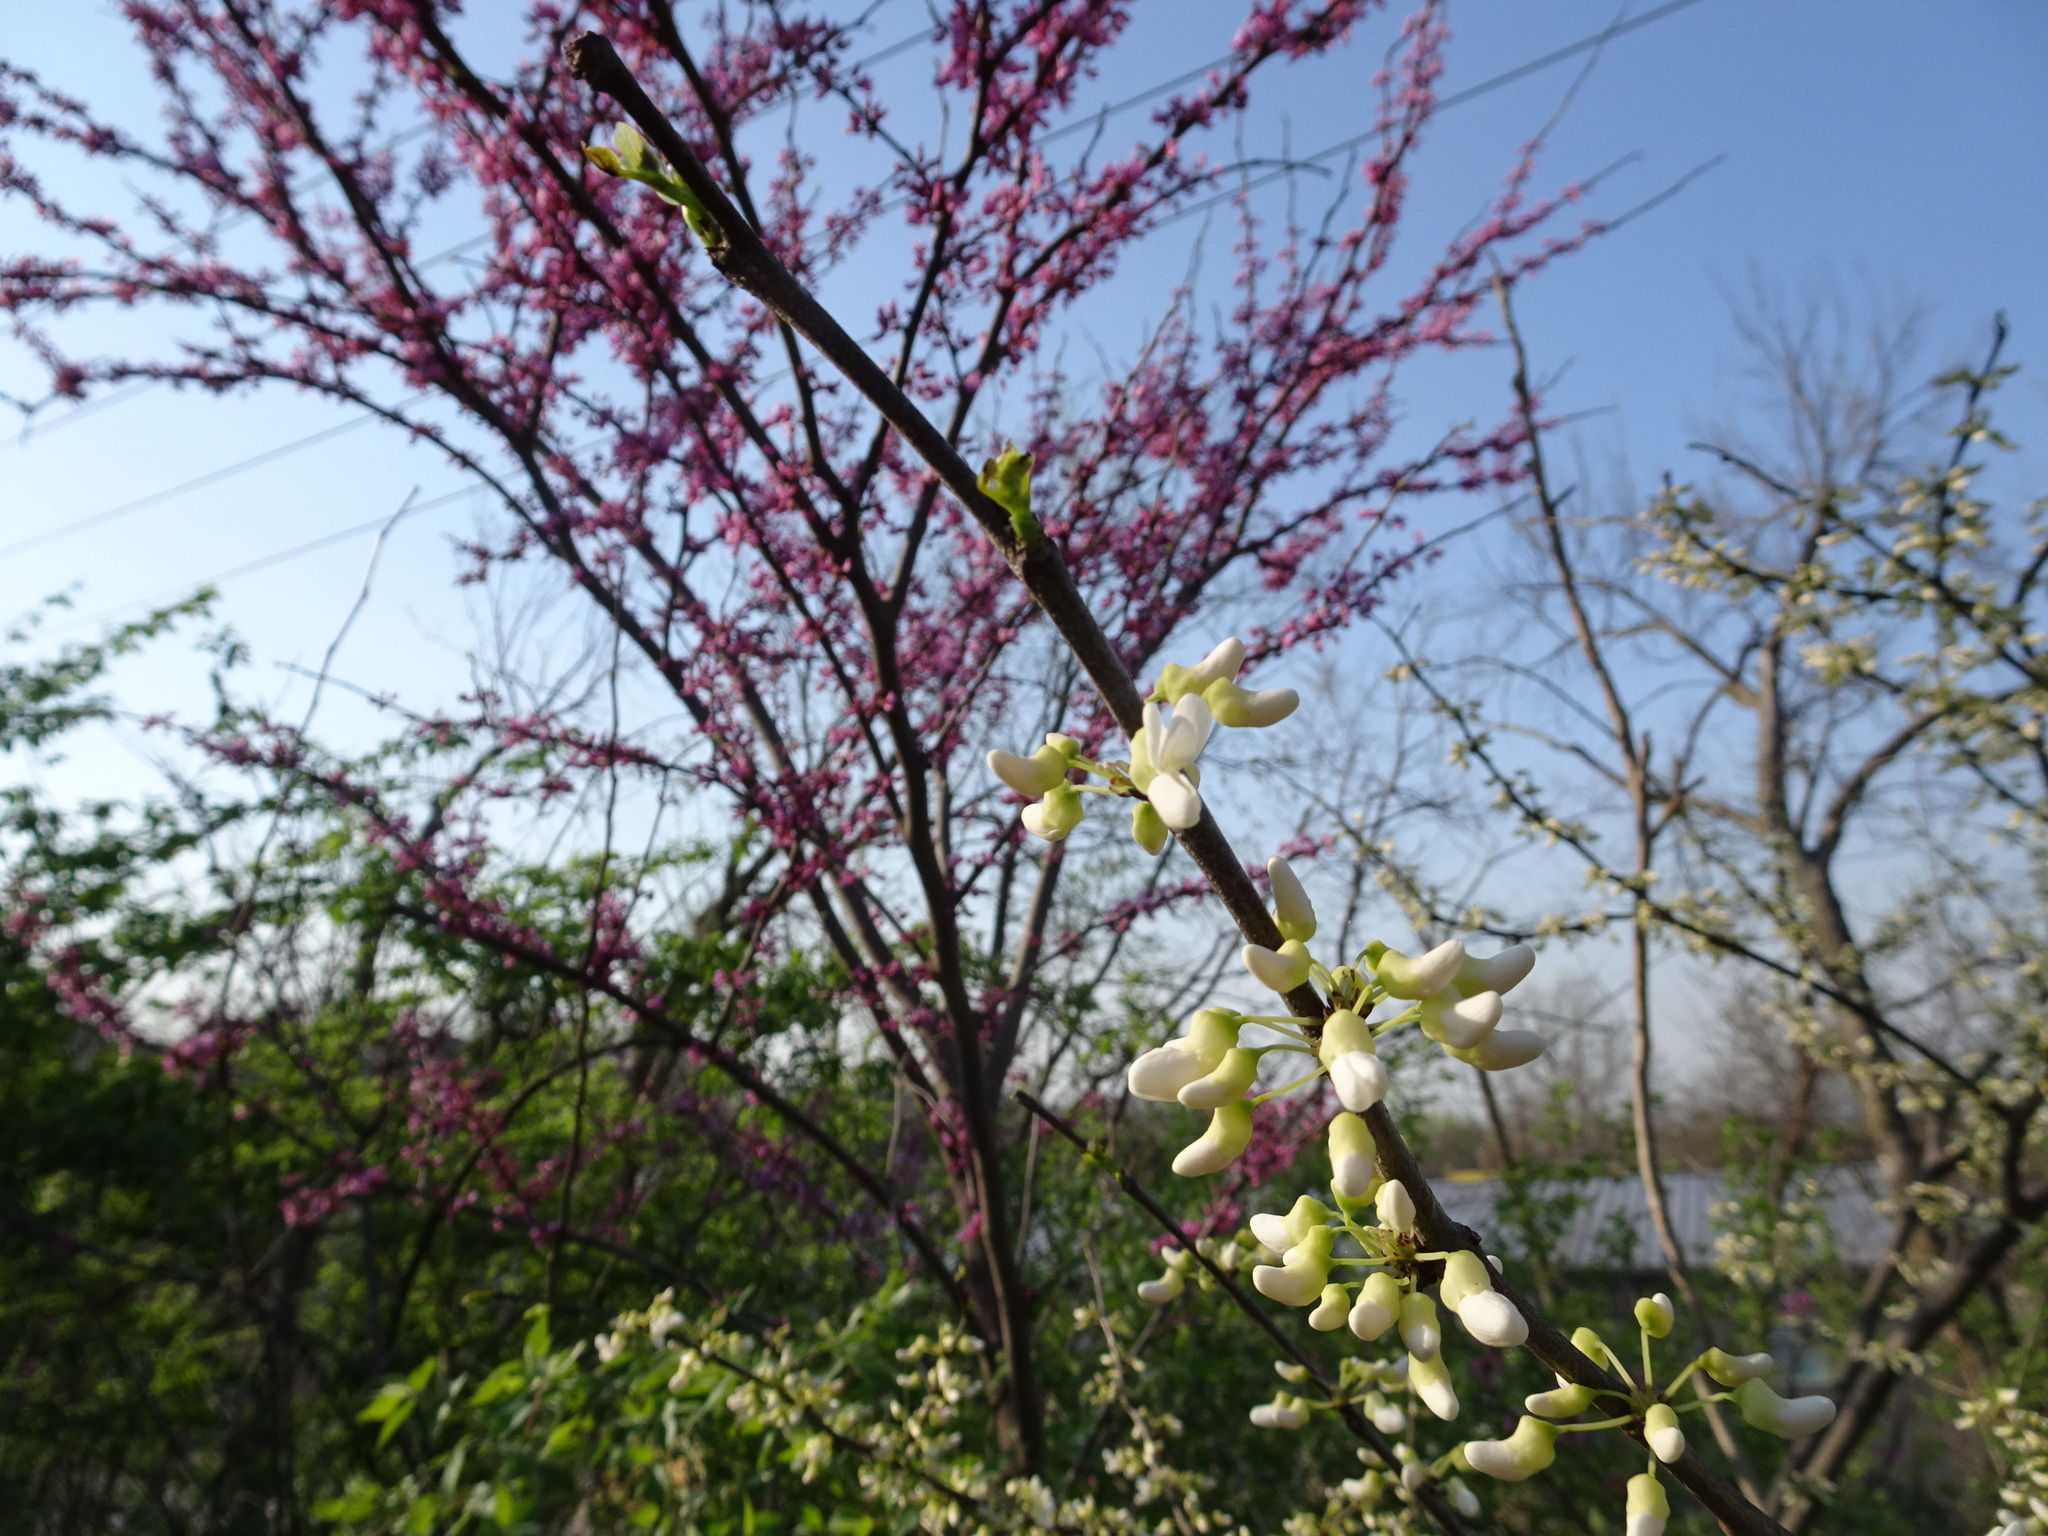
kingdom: Plantae
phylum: Tracheophyta
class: Magnoliopsida
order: Fabales
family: Fabaceae
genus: Cercis
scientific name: Cercis canadensis
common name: Eastern redbud
